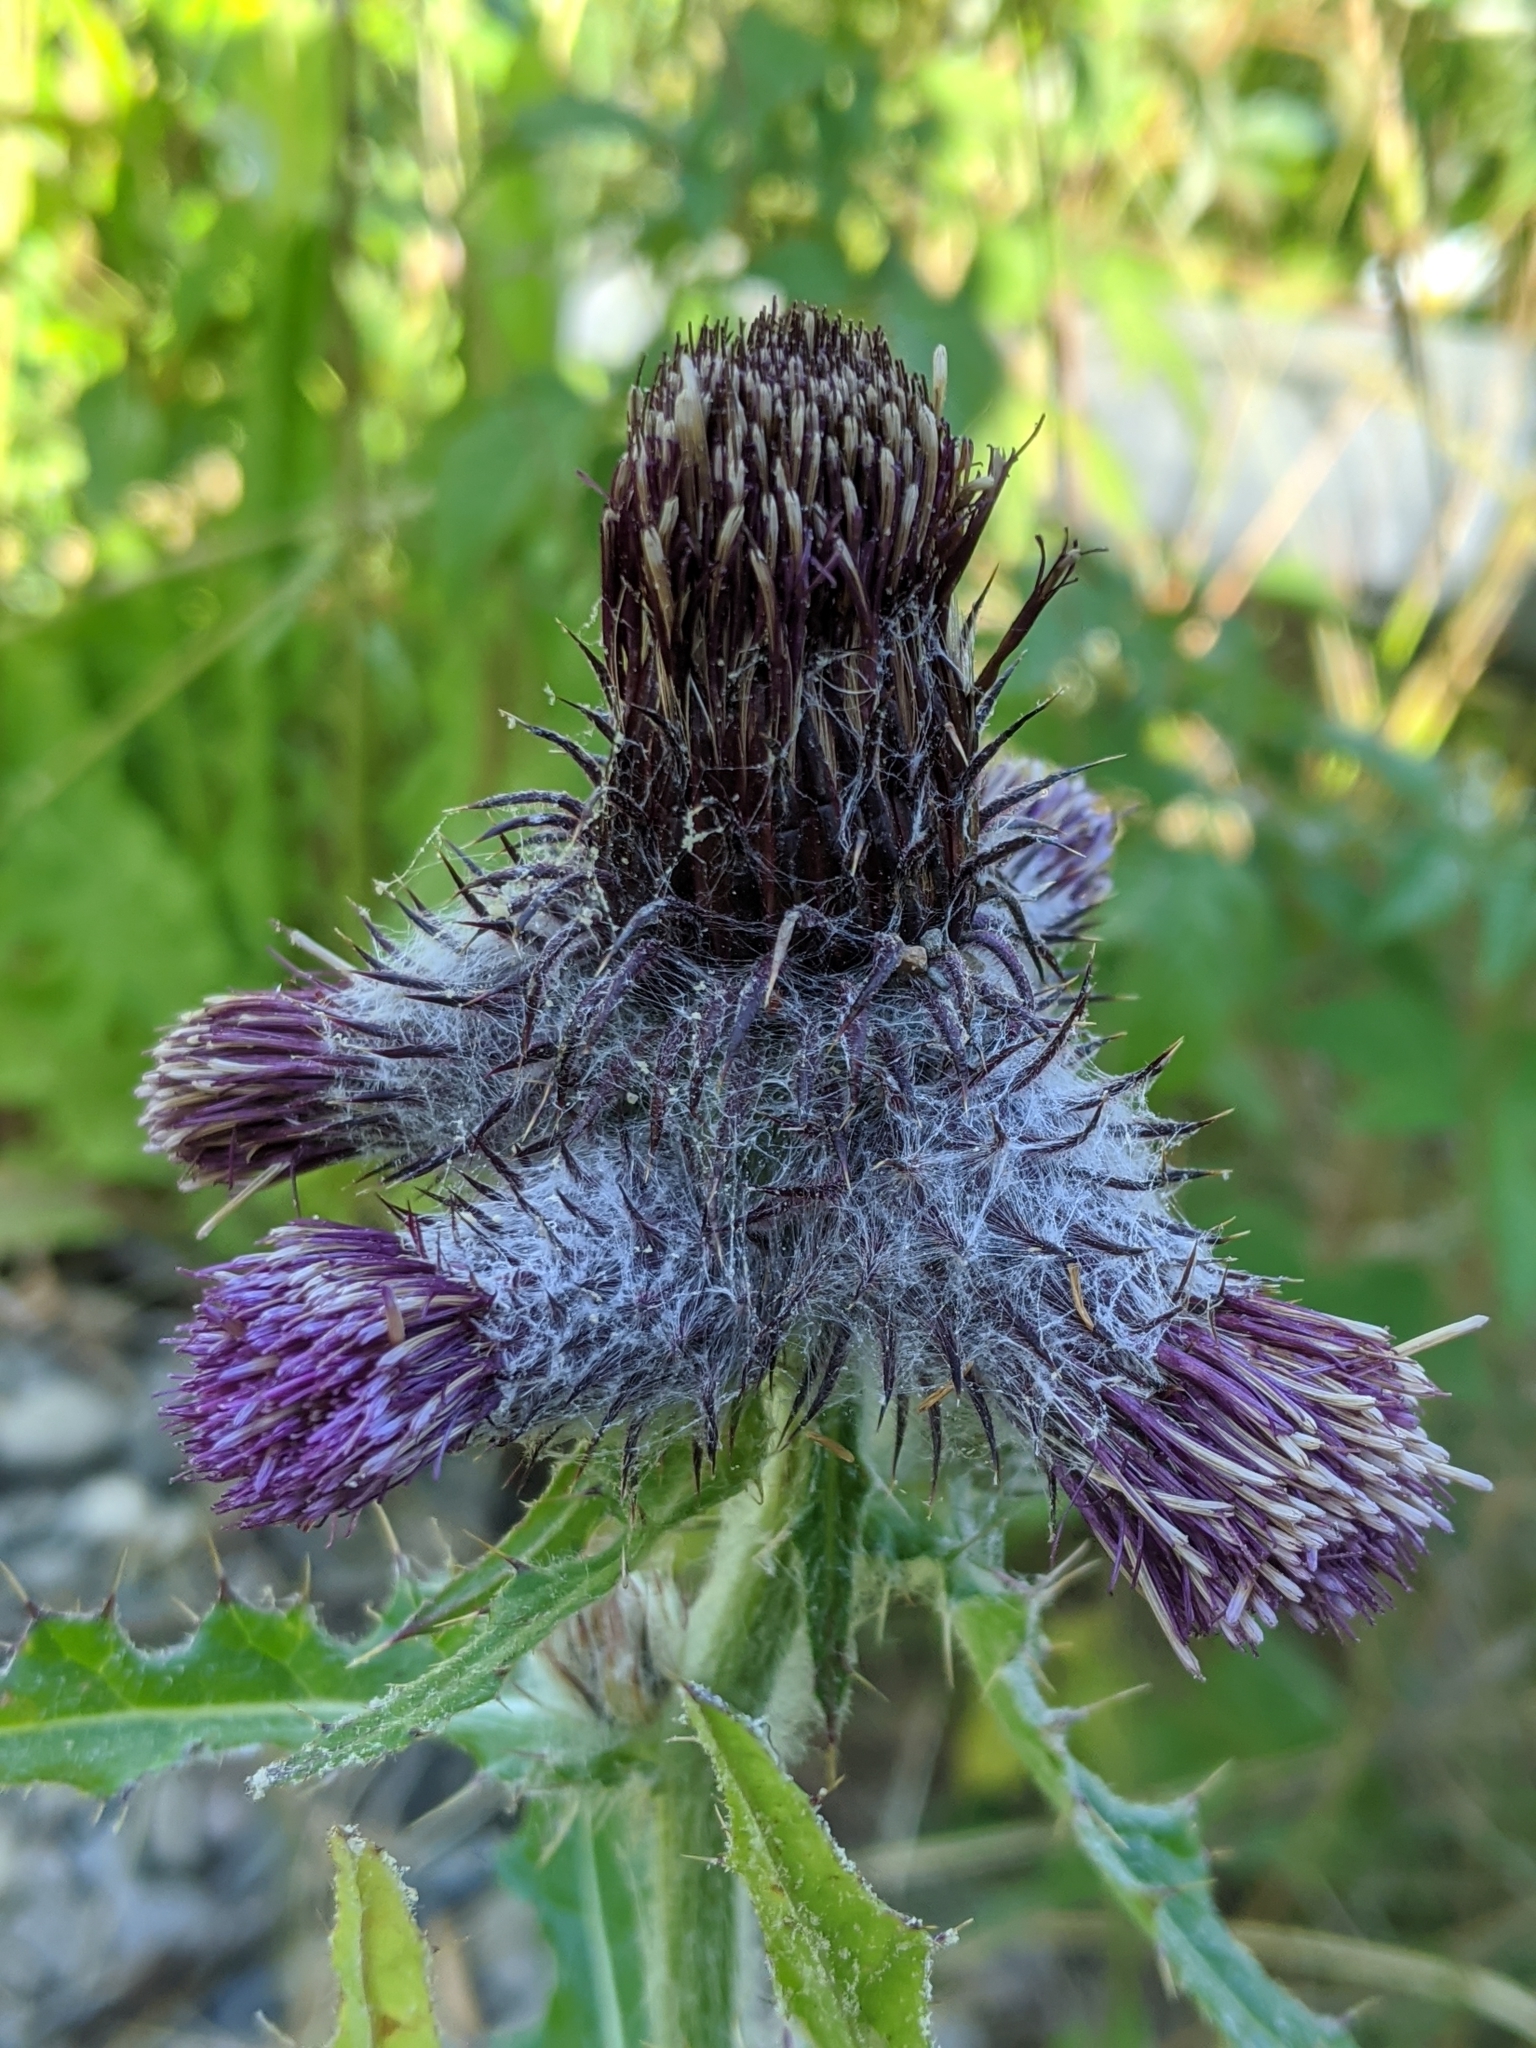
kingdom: Plantae
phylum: Tracheophyta
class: Magnoliopsida
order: Asterales
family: Asteraceae
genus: Cirsium
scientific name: Cirsium edule
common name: Indian thistle
